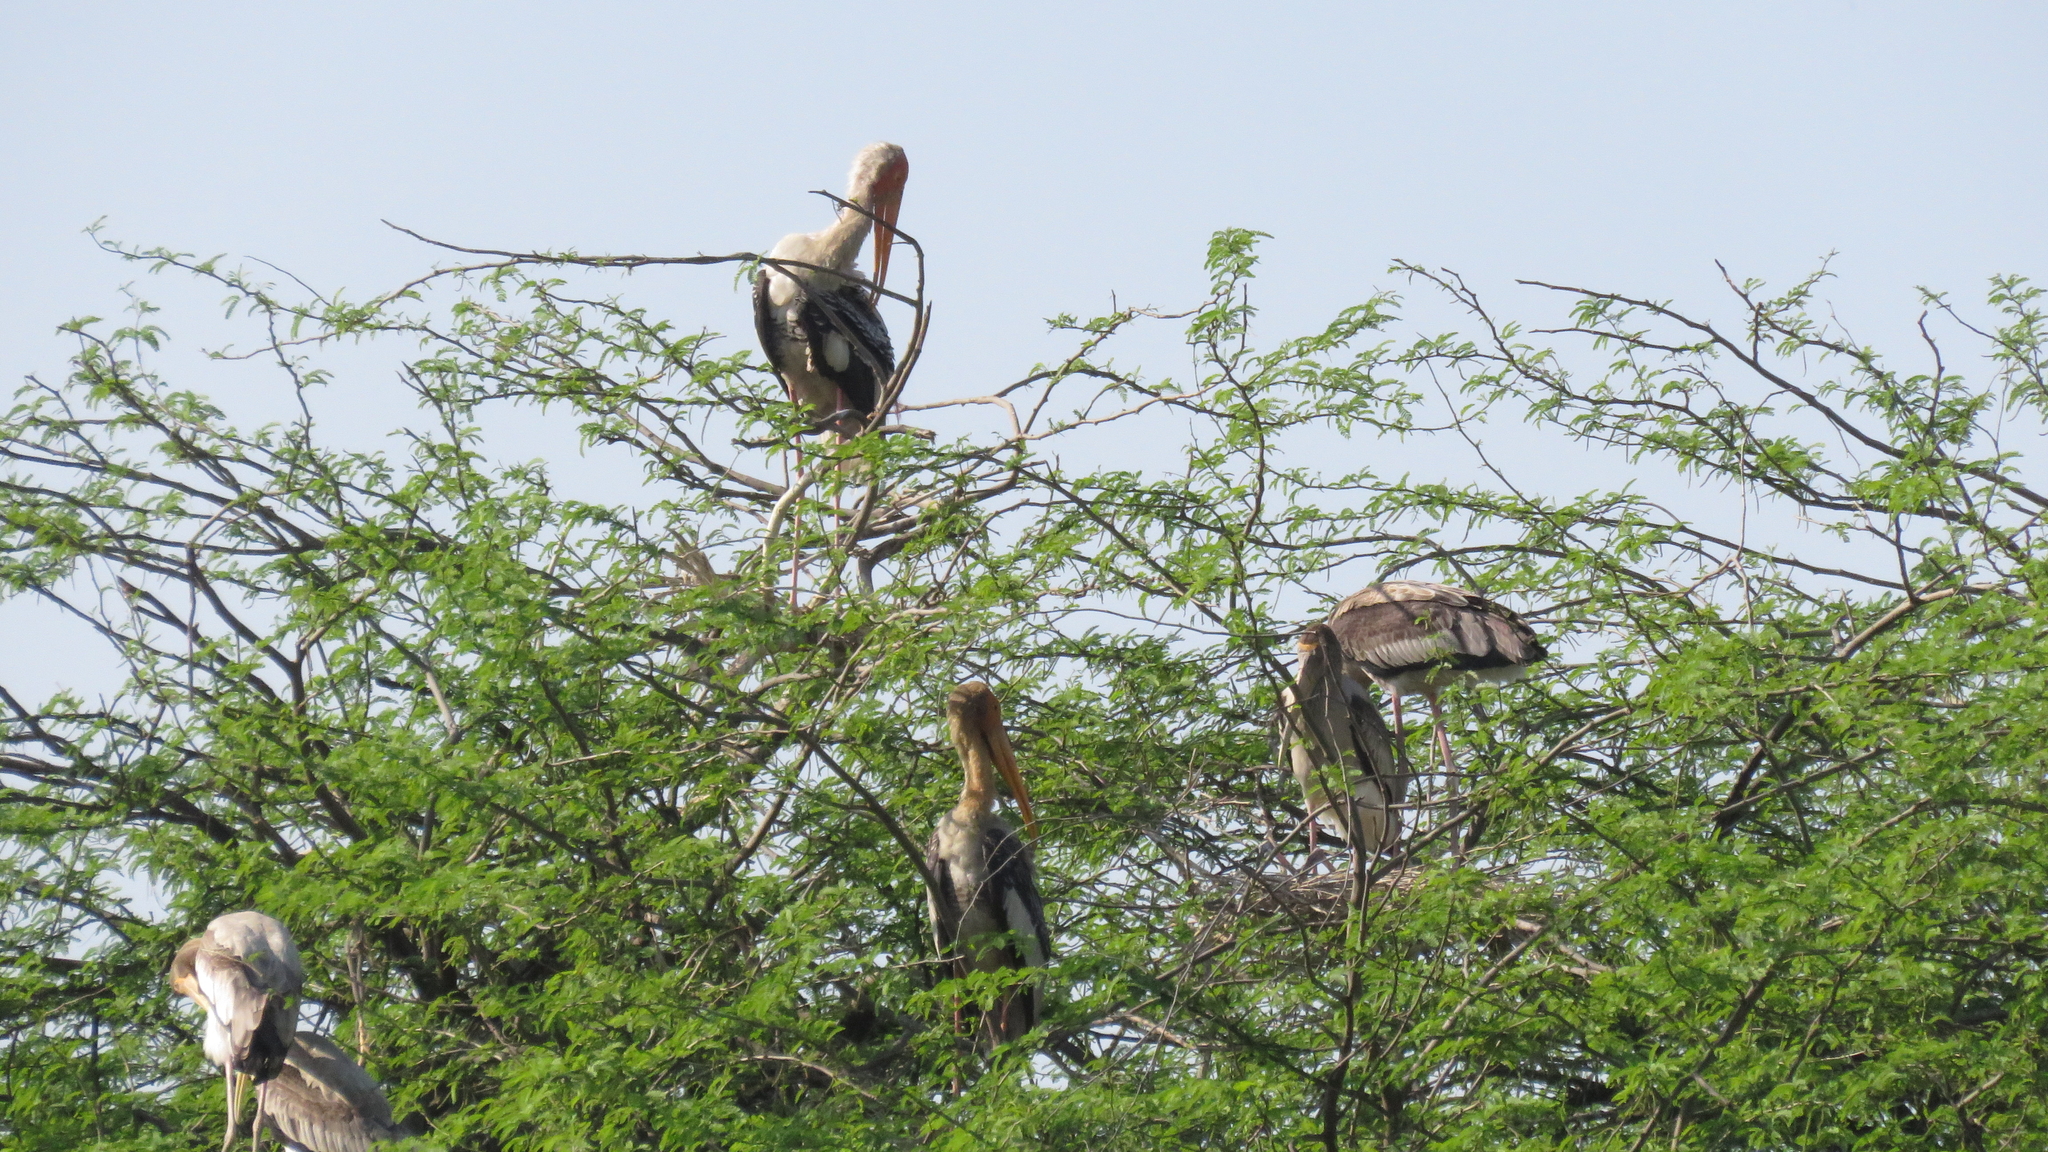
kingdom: Animalia
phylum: Chordata
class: Aves
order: Ciconiiformes
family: Ciconiidae
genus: Mycteria
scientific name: Mycteria leucocephala
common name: Painted stork
